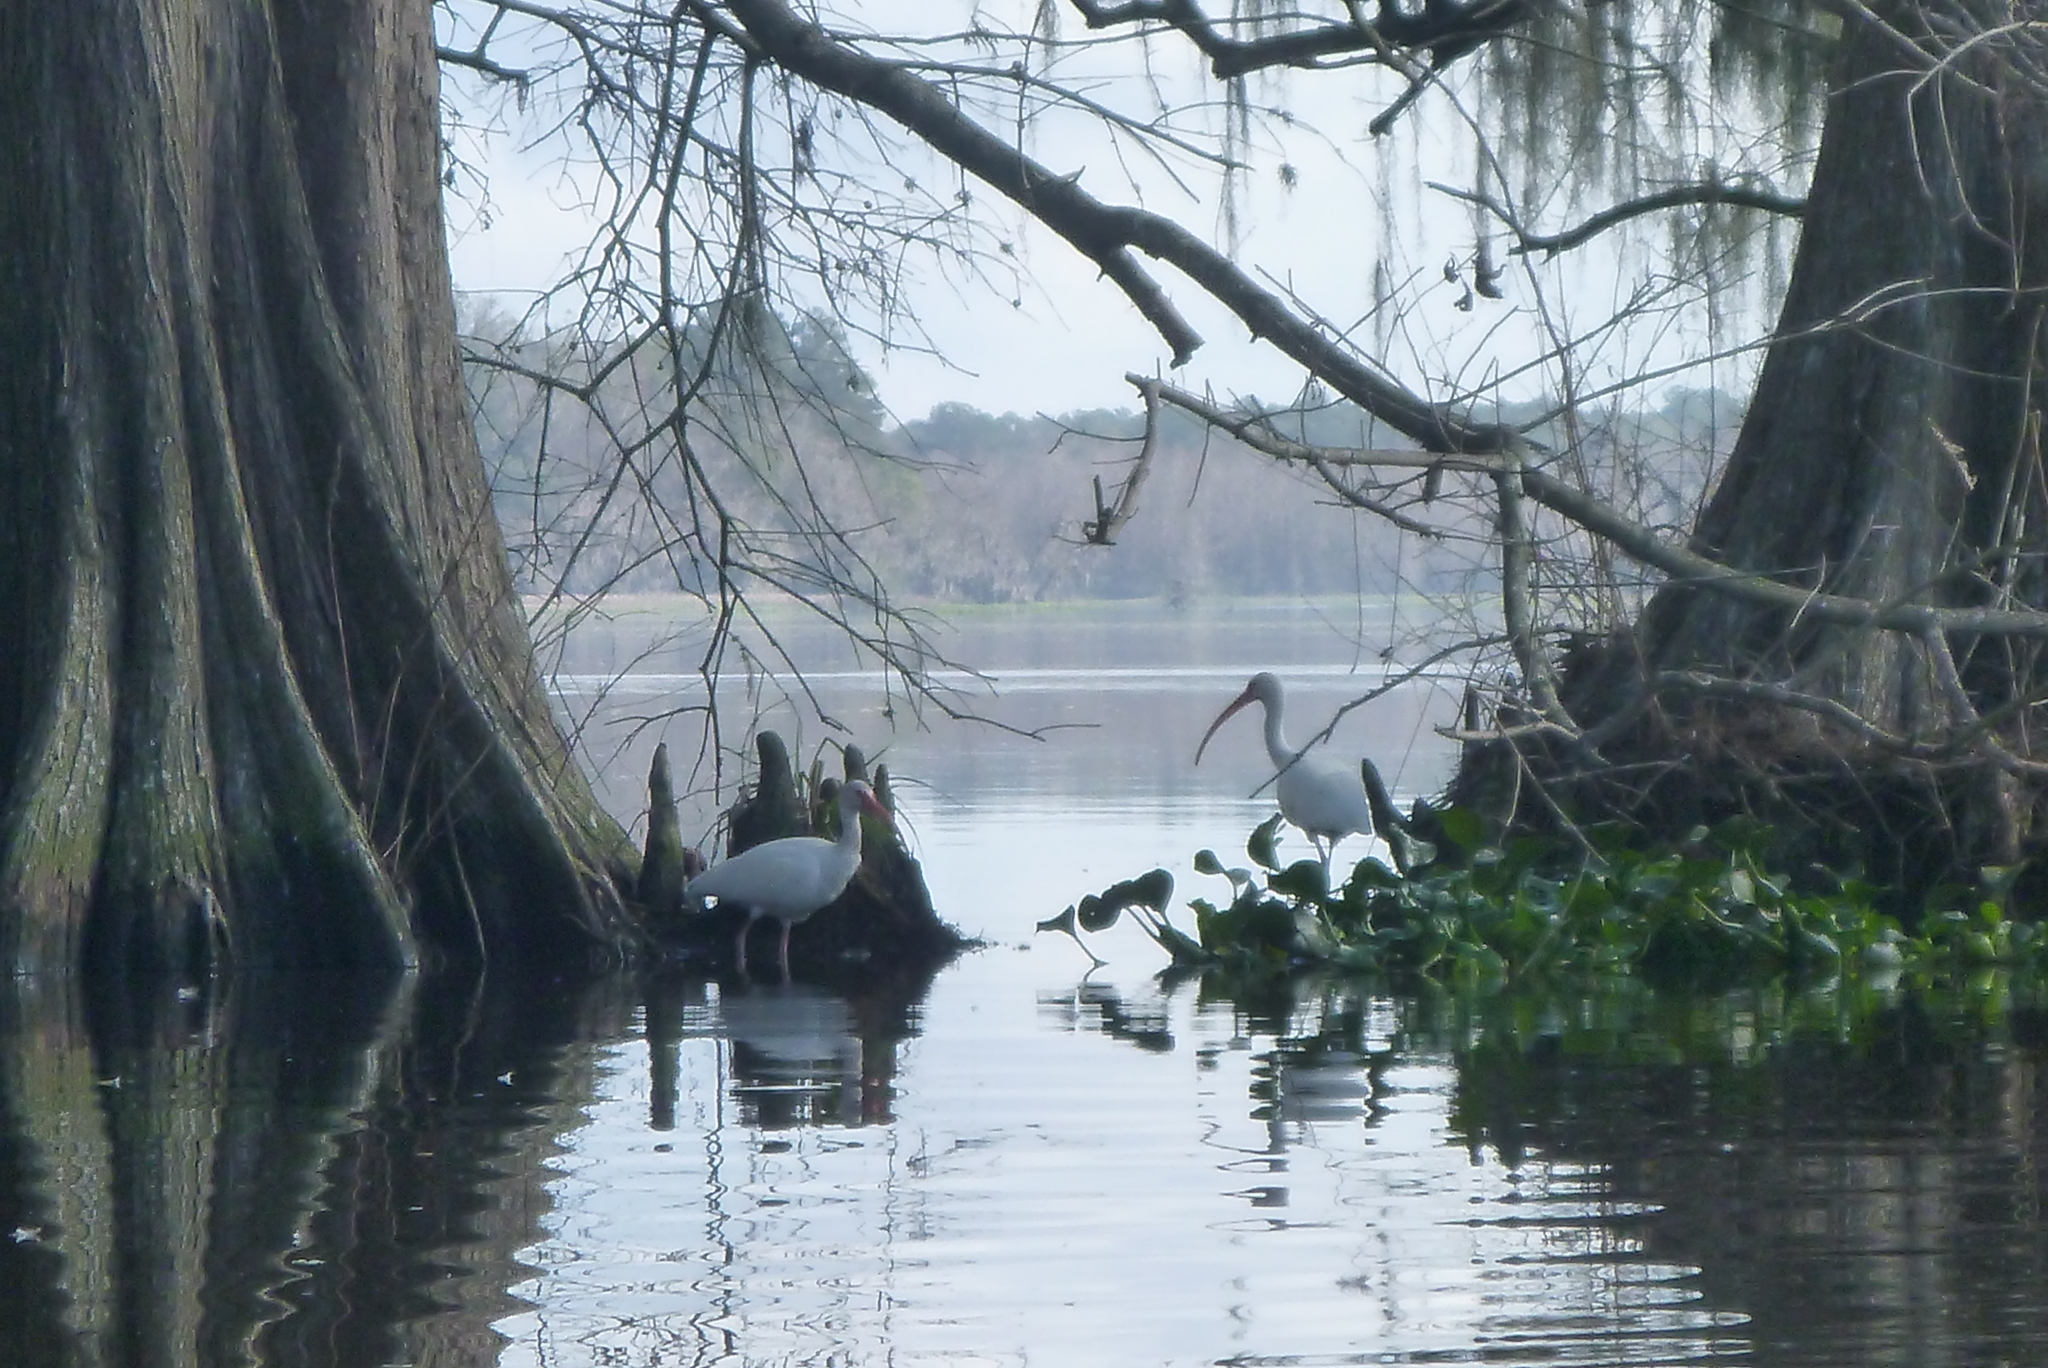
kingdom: Animalia
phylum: Chordata
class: Aves
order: Pelecaniformes
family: Threskiornithidae
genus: Eudocimus
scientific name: Eudocimus albus
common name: White ibis
